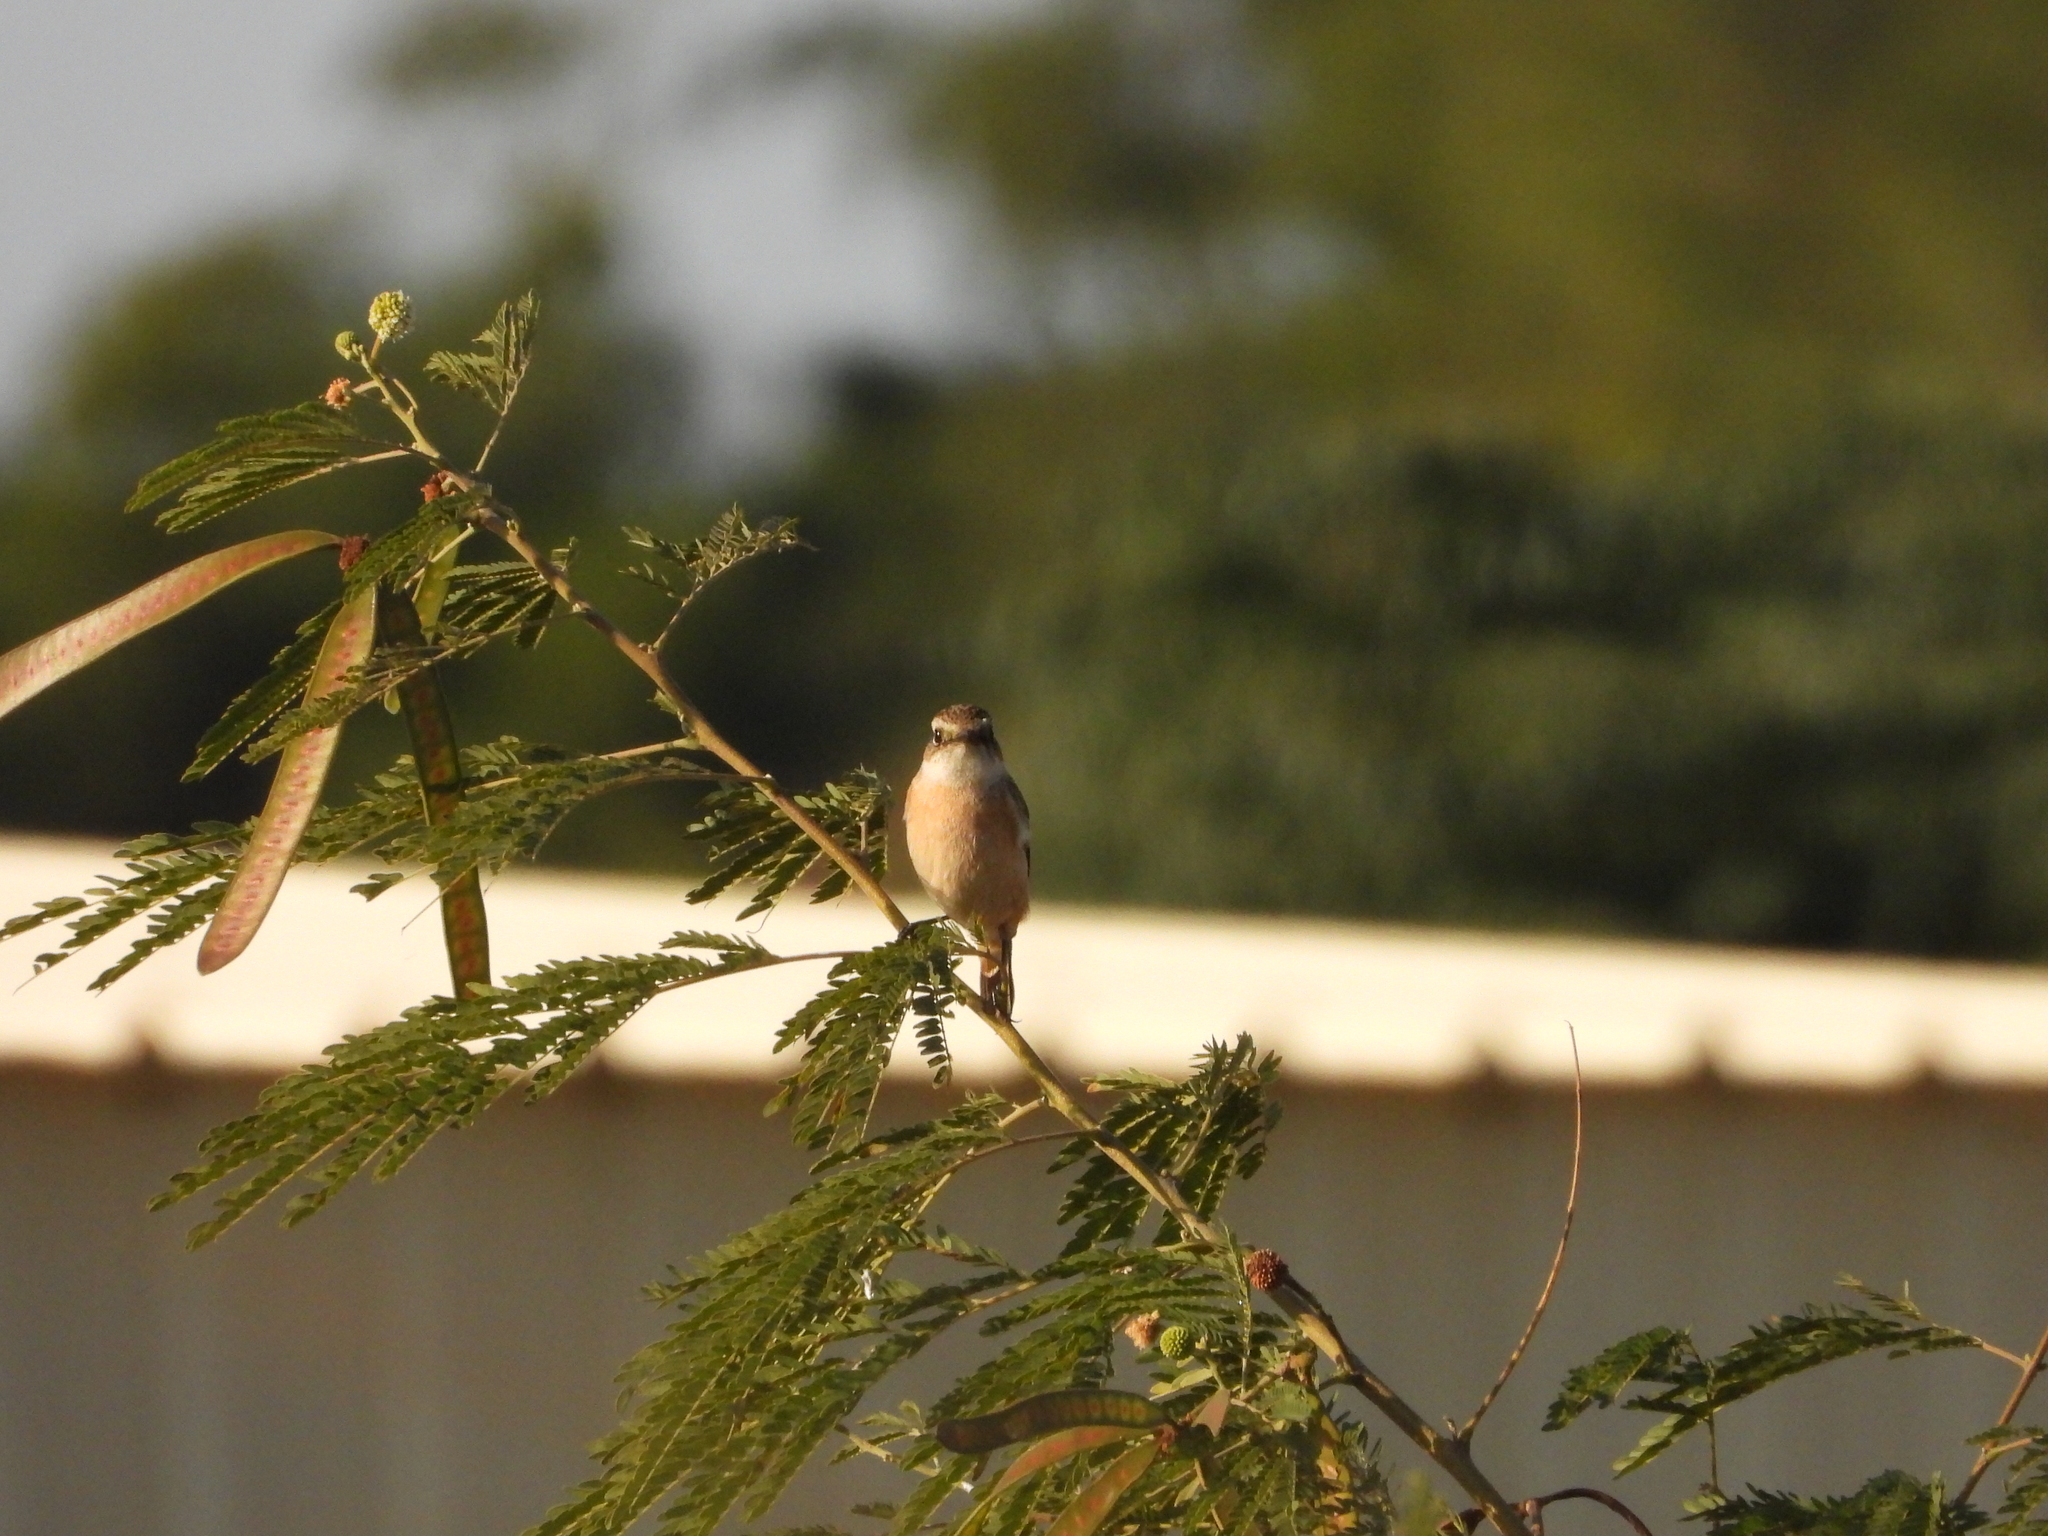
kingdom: Animalia
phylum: Chordata
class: Aves
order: Passeriformes
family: Muscicapidae
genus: Saxicola
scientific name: Saxicola stejnegeri
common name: Stejneger's stonechat
